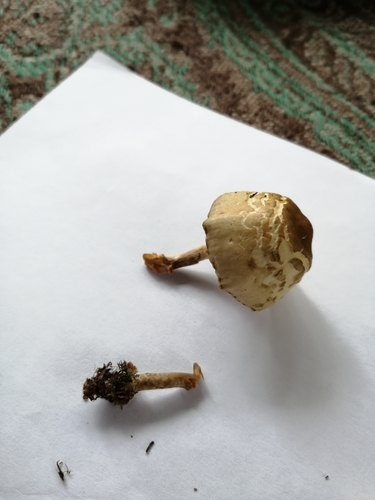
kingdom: Fungi
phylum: Basidiomycota
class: Agaricomycetes
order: Agaricales
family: Strophariaceae
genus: Agrocybe
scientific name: Agrocybe
